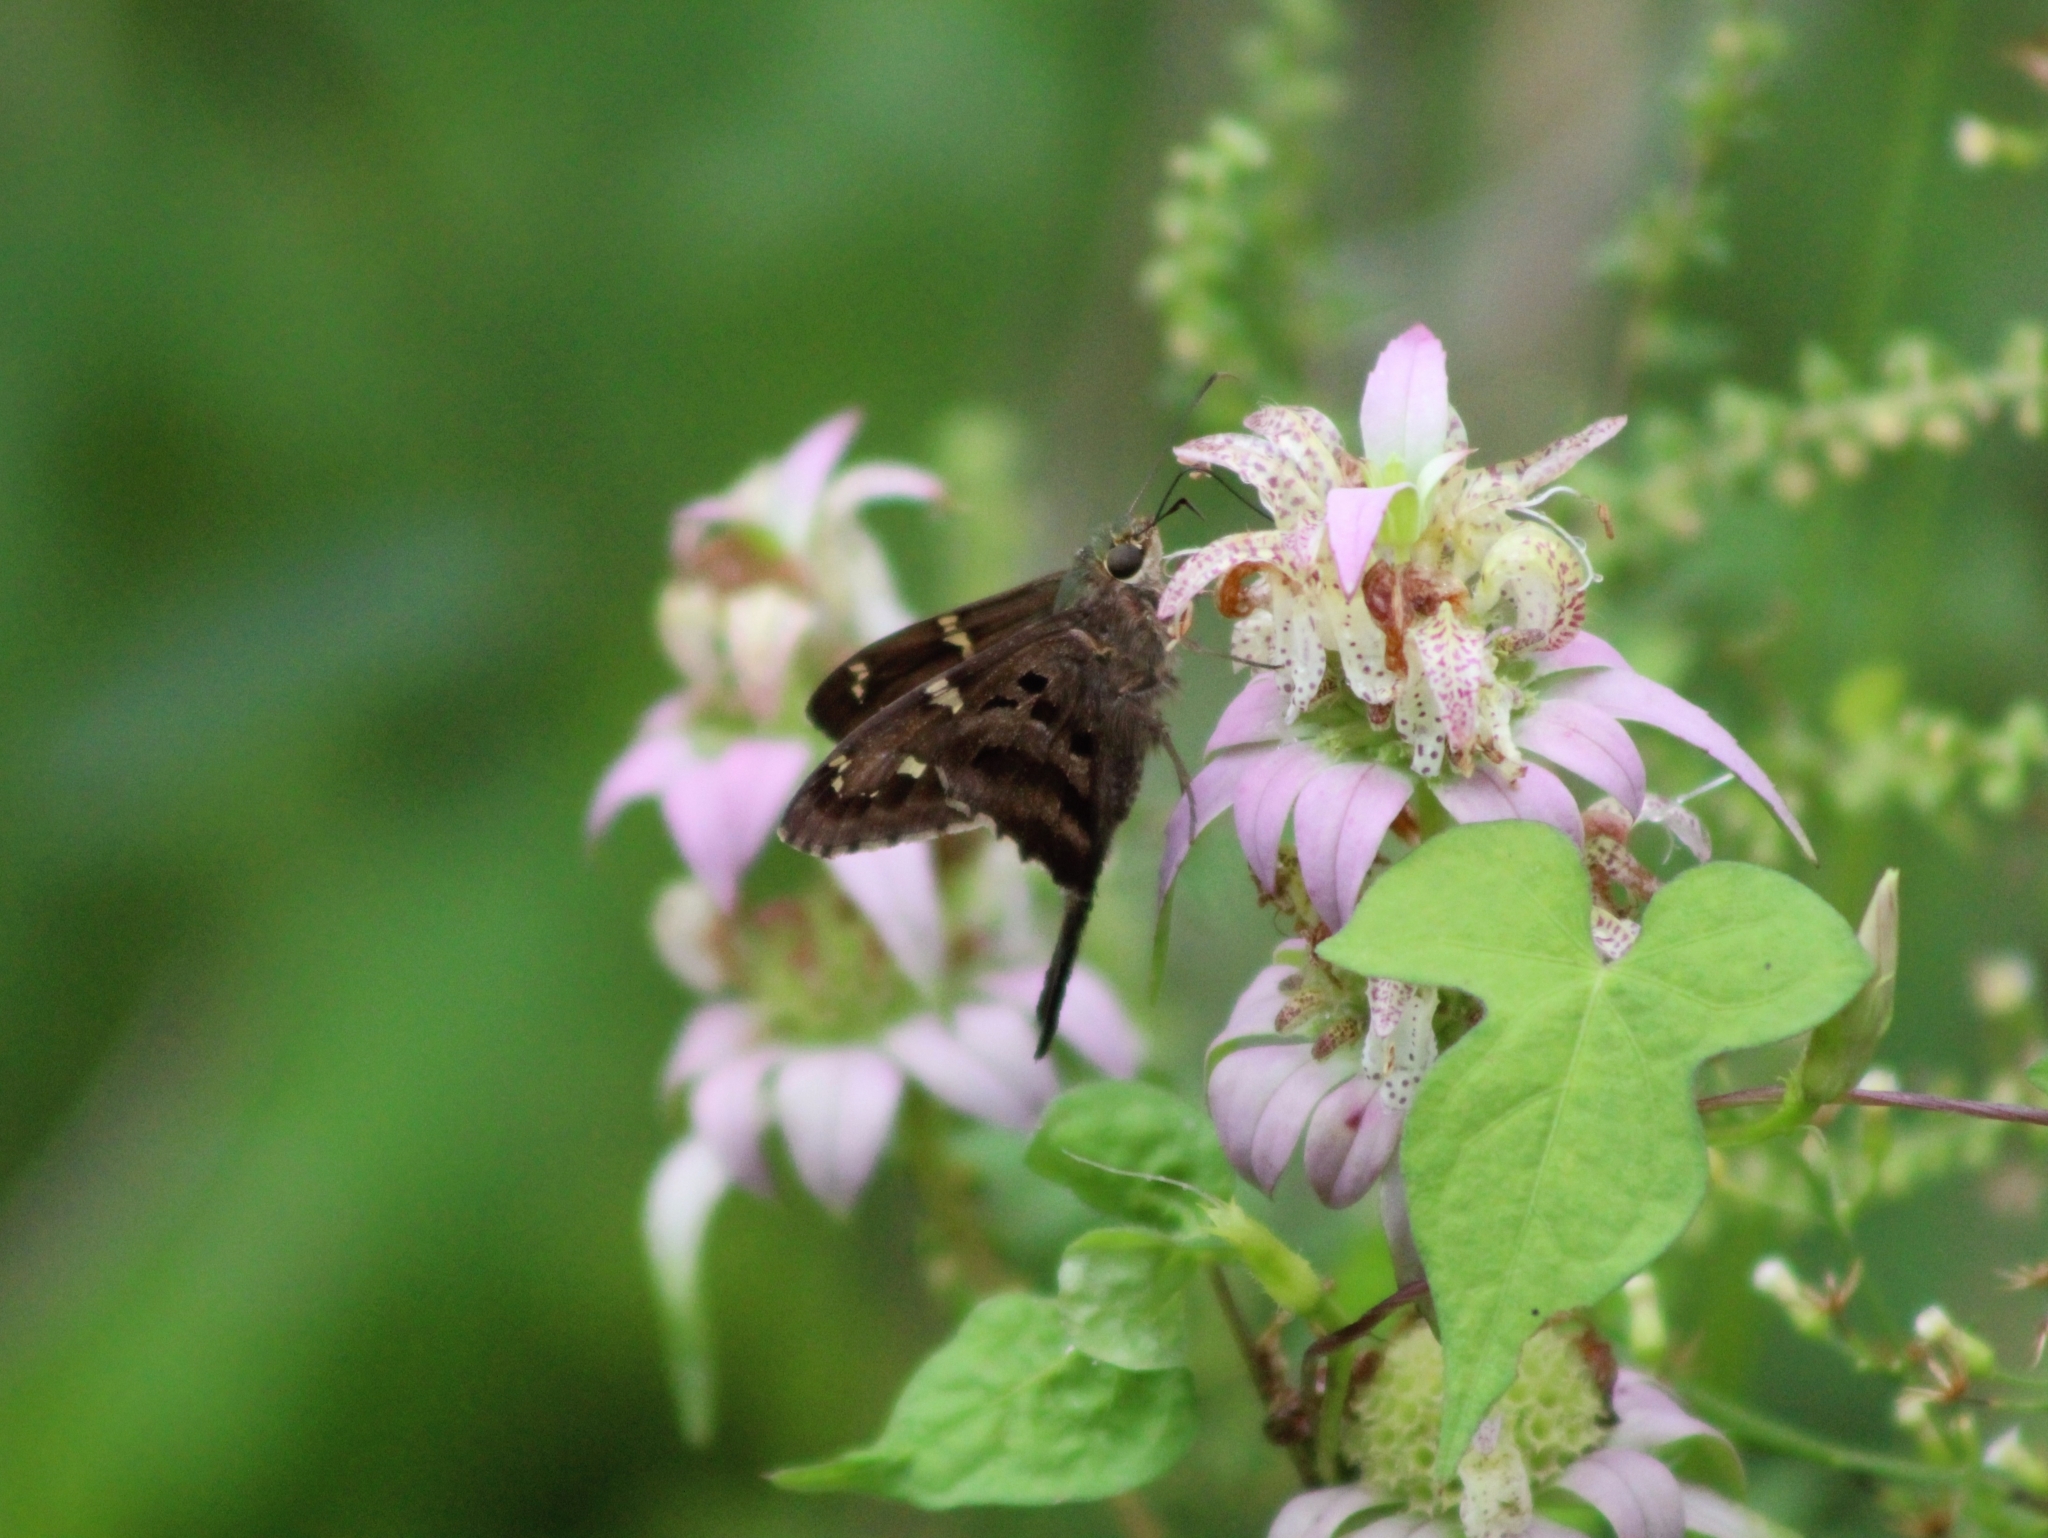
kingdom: Animalia
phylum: Arthropoda
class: Insecta
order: Lepidoptera
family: Hesperiidae
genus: Urbanus
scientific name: Urbanus proteus
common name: Long-tailed skipper
